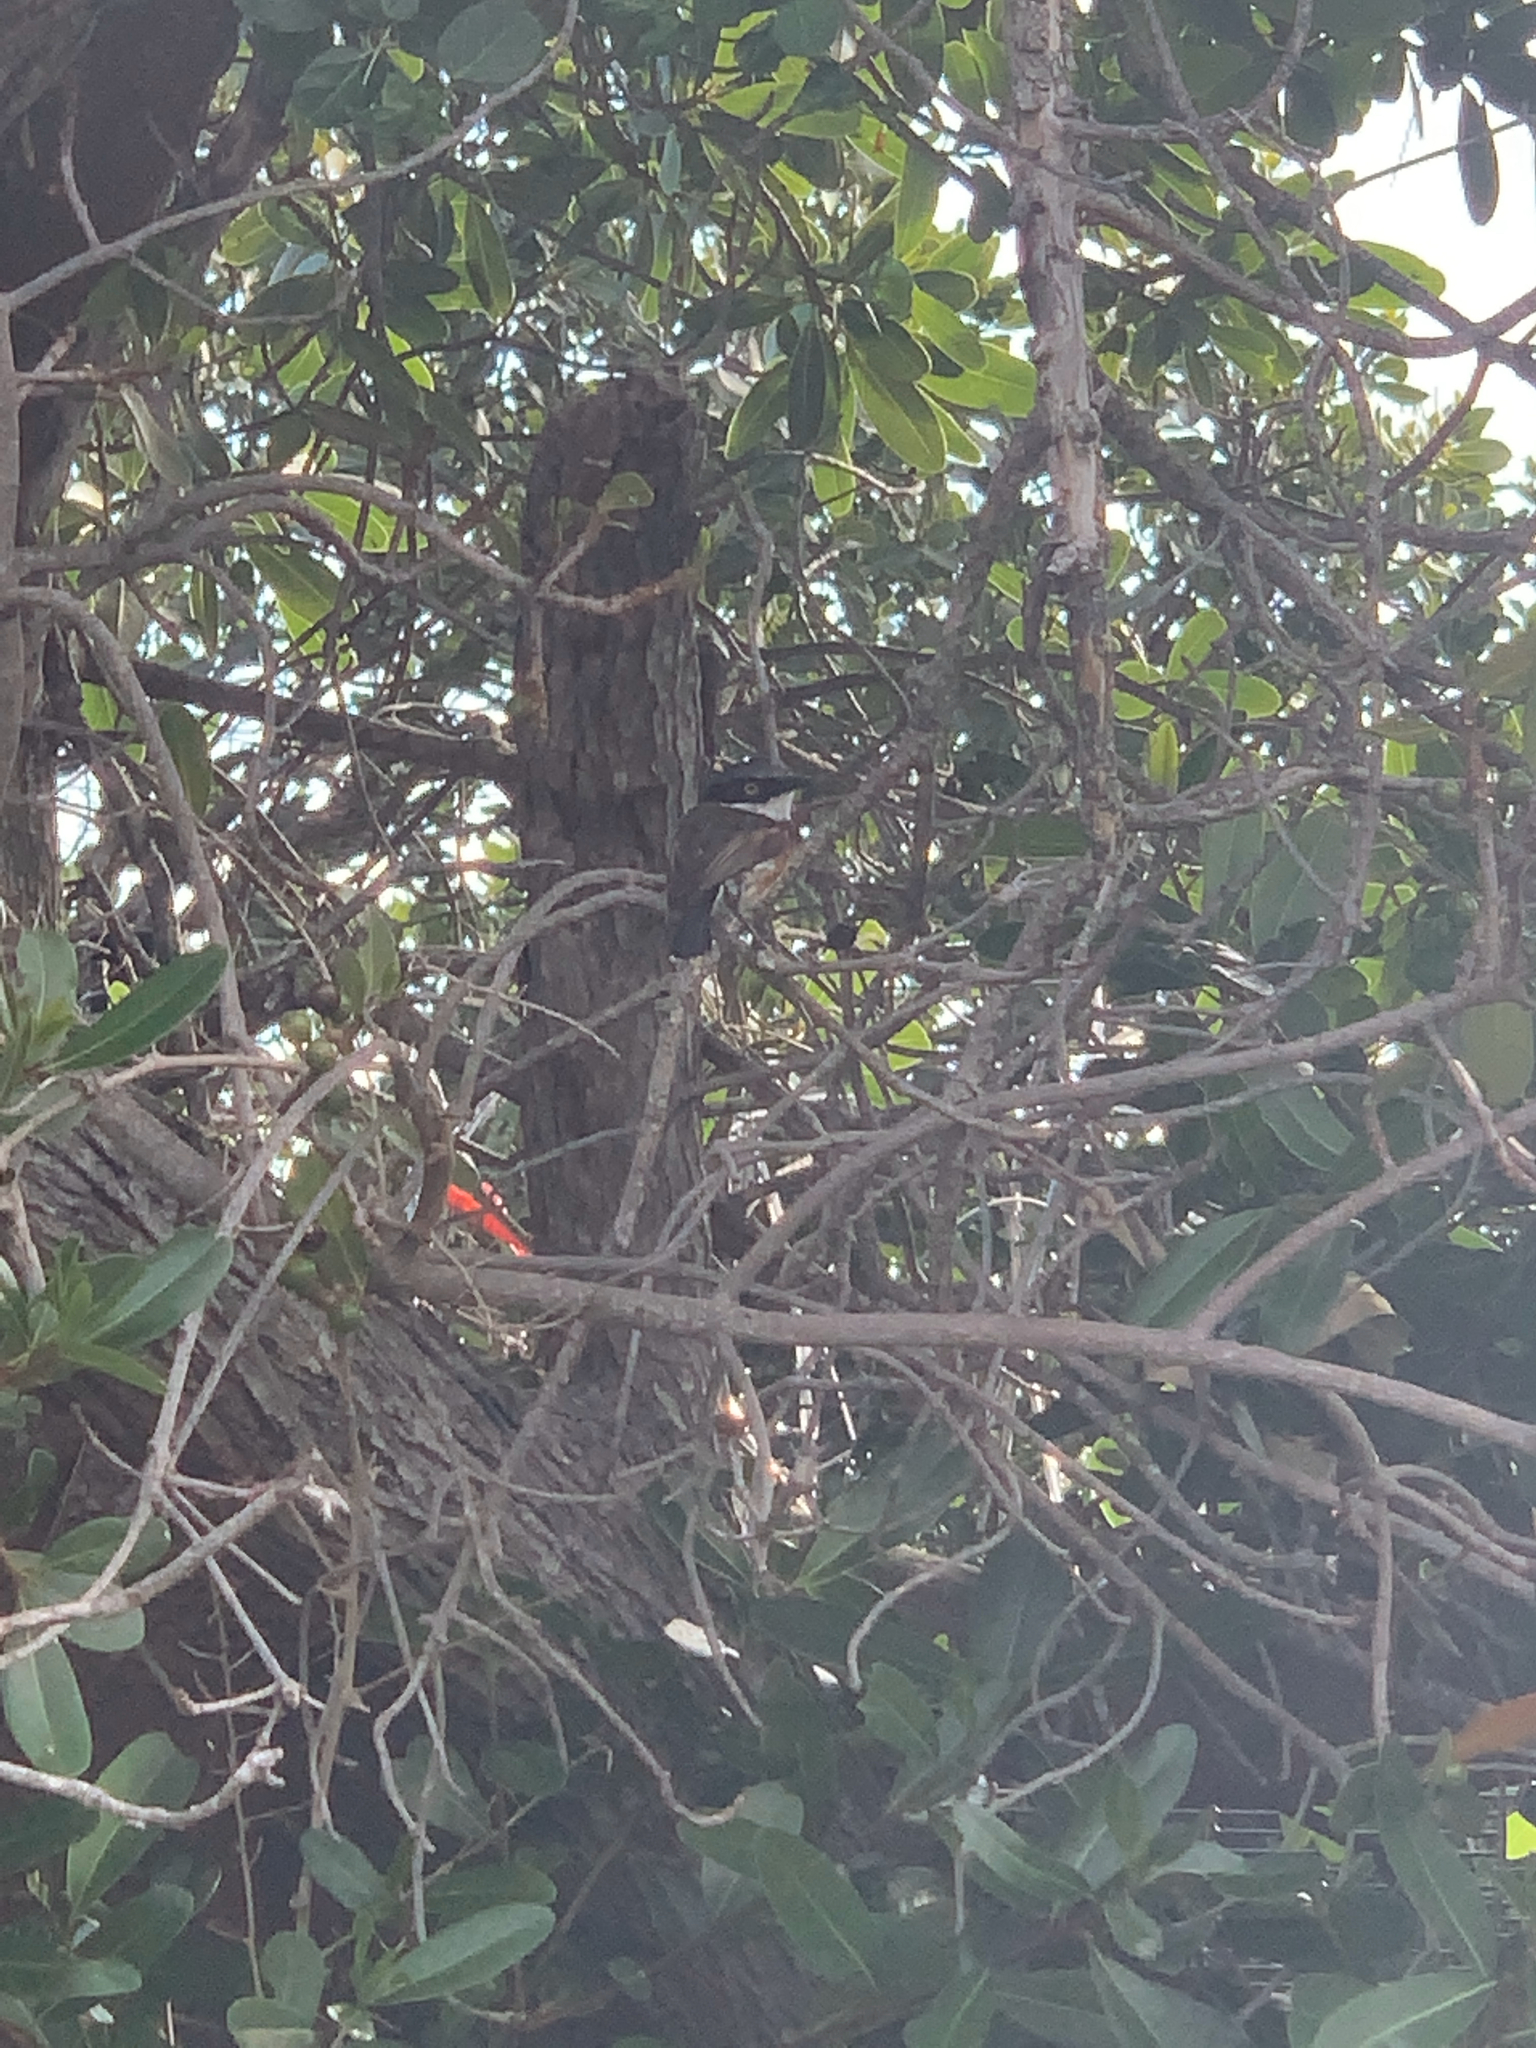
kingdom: Animalia
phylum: Chordata
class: Aves
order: Passeriformes
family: Platysteiridae
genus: Batis
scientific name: Batis capensis
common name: Cape batis
